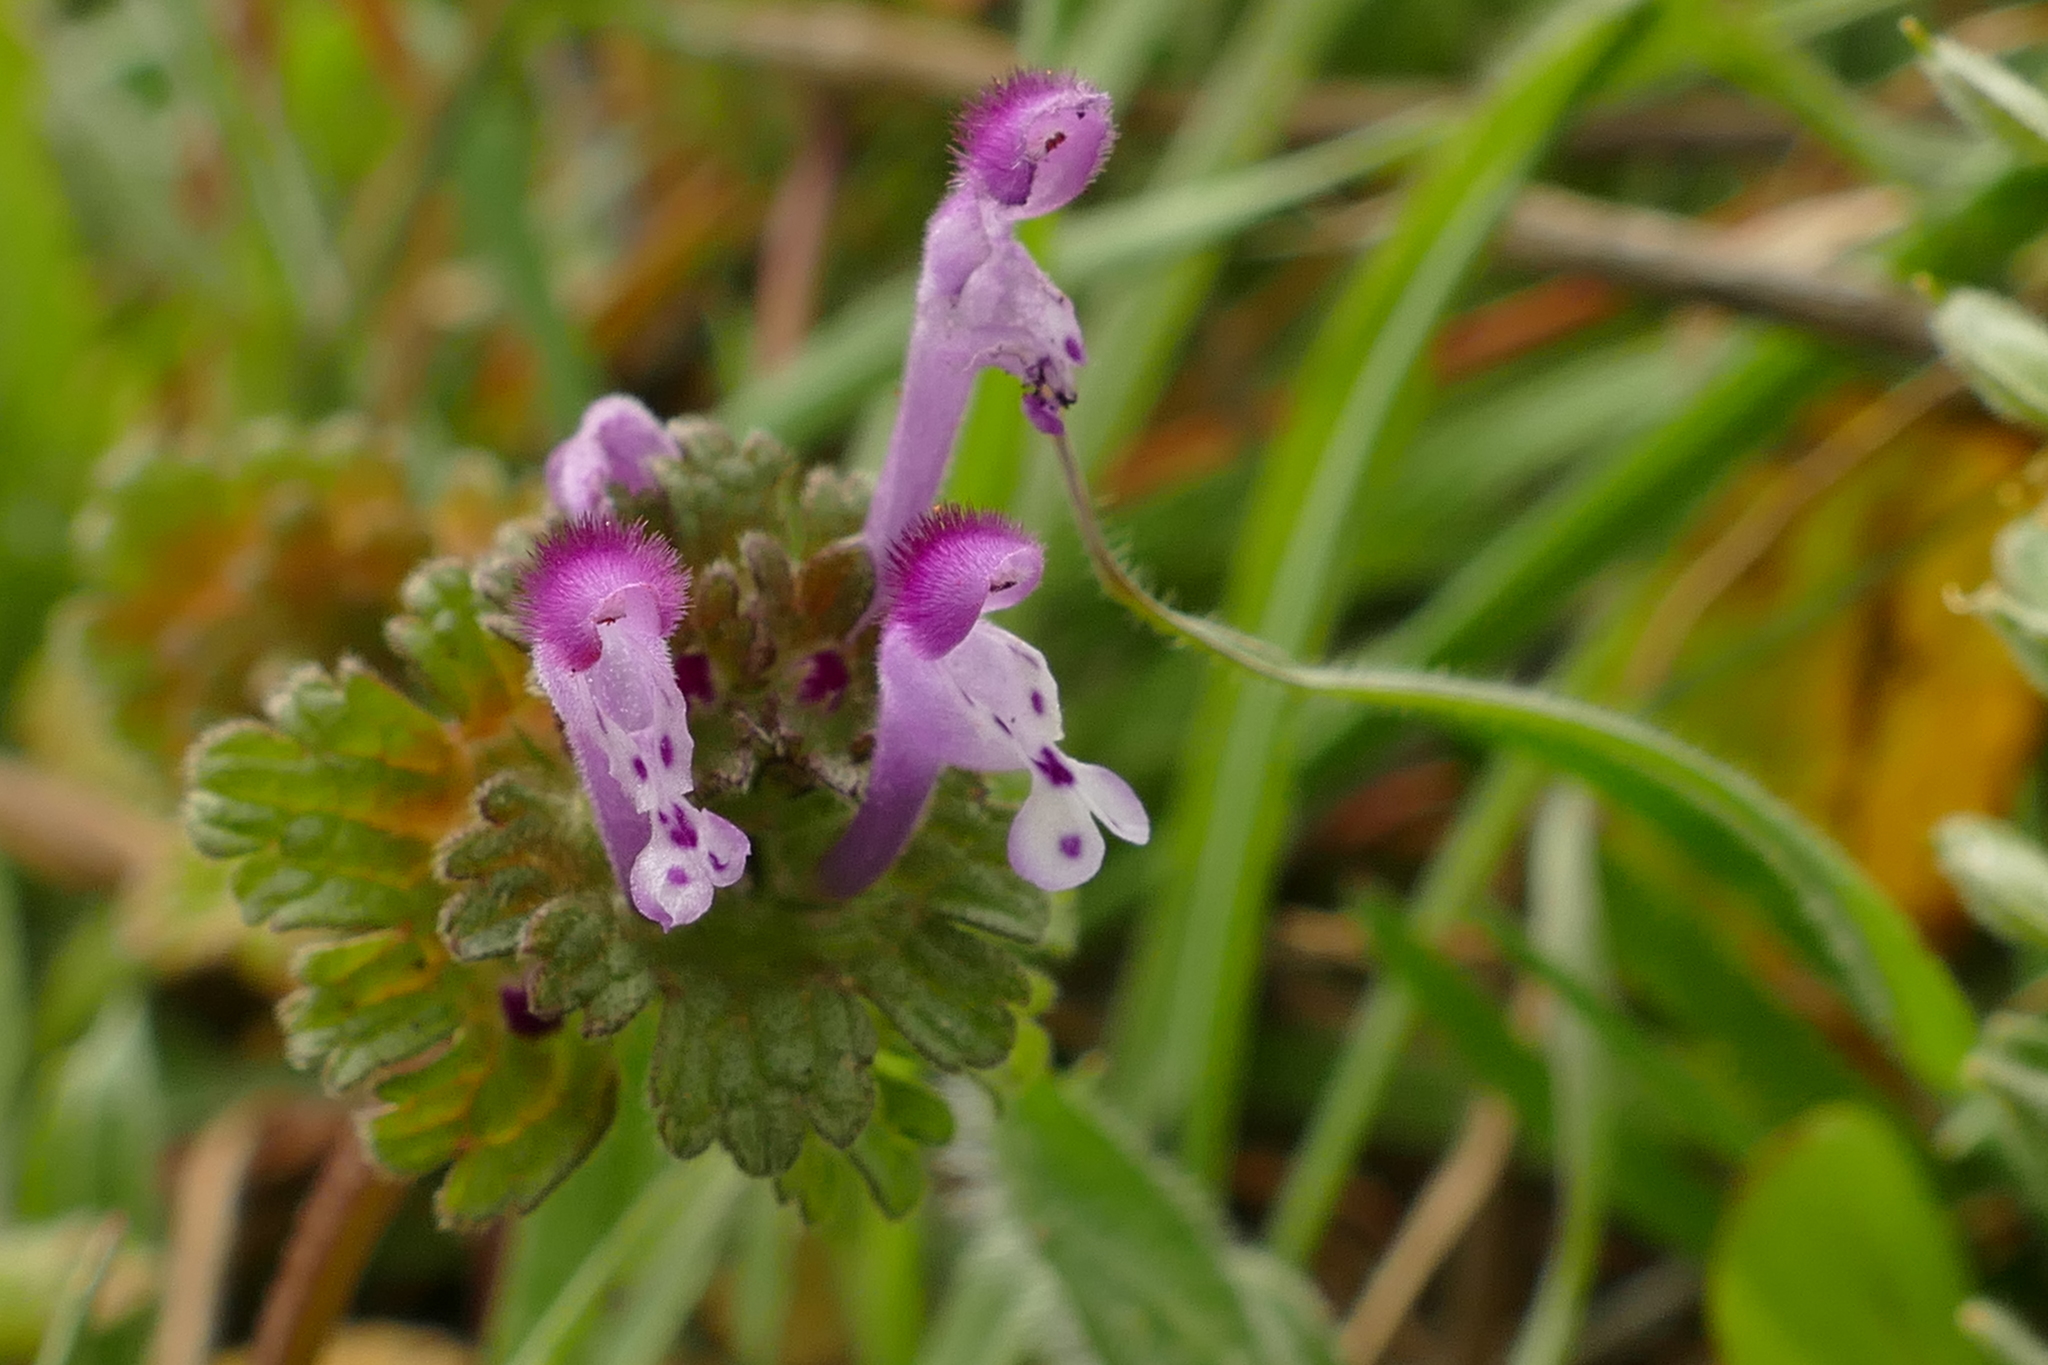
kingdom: Plantae
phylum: Tracheophyta
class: Magnoliopsida
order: Lamiales
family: Lamiaceae
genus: Lamium
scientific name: Lamium amplexicaule
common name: Henbit dead-nettle
